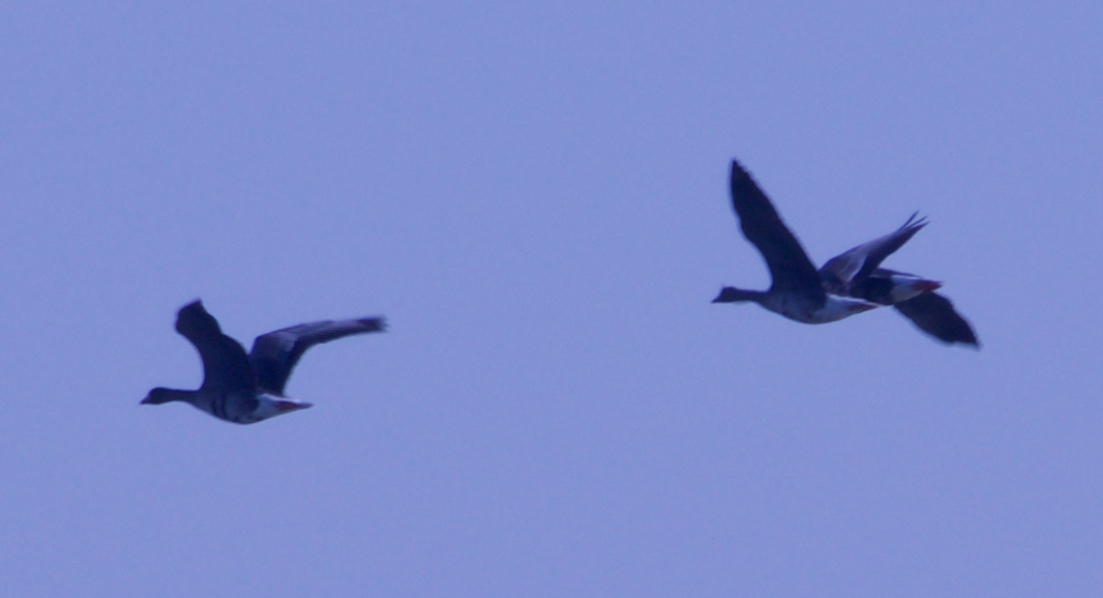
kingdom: Animalia
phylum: Chordata
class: Aves
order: Anseriformes
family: Anatidae
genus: Anser
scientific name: Anser albifrons
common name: Greater white-fronted goose
